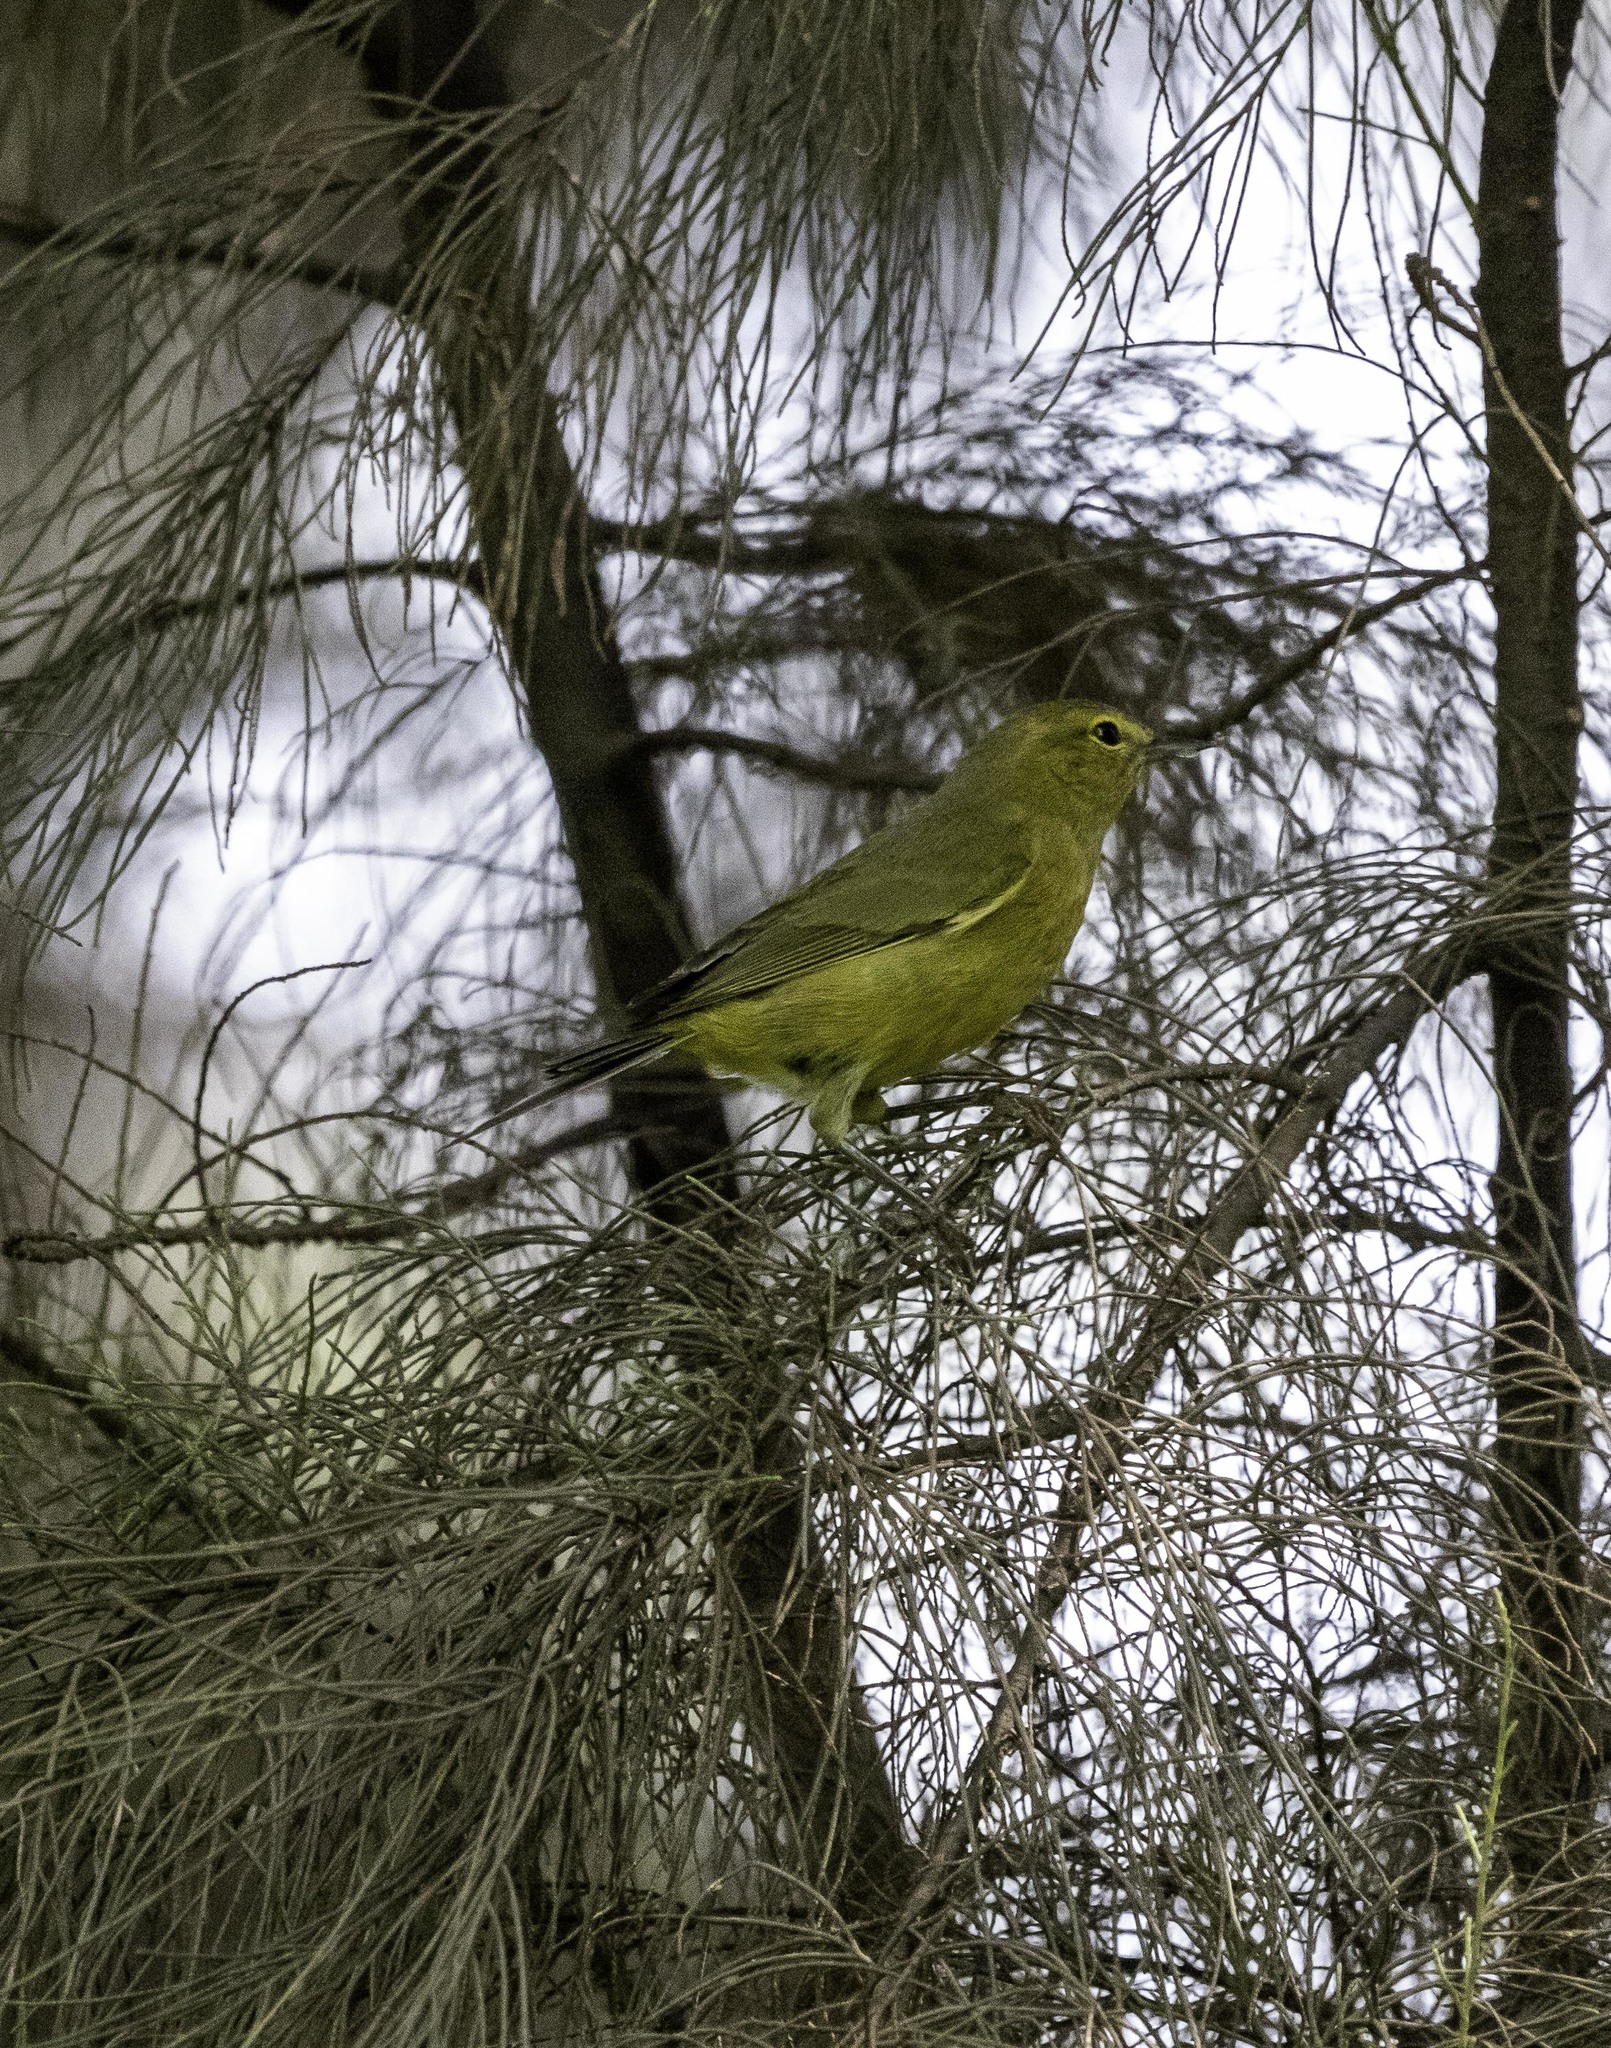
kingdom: Animalia
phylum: Chordata
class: Aves
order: Passeriformes
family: Parulidae
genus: Leiothlypis
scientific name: Leiothlypis celata
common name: Orange-crowned warbler
